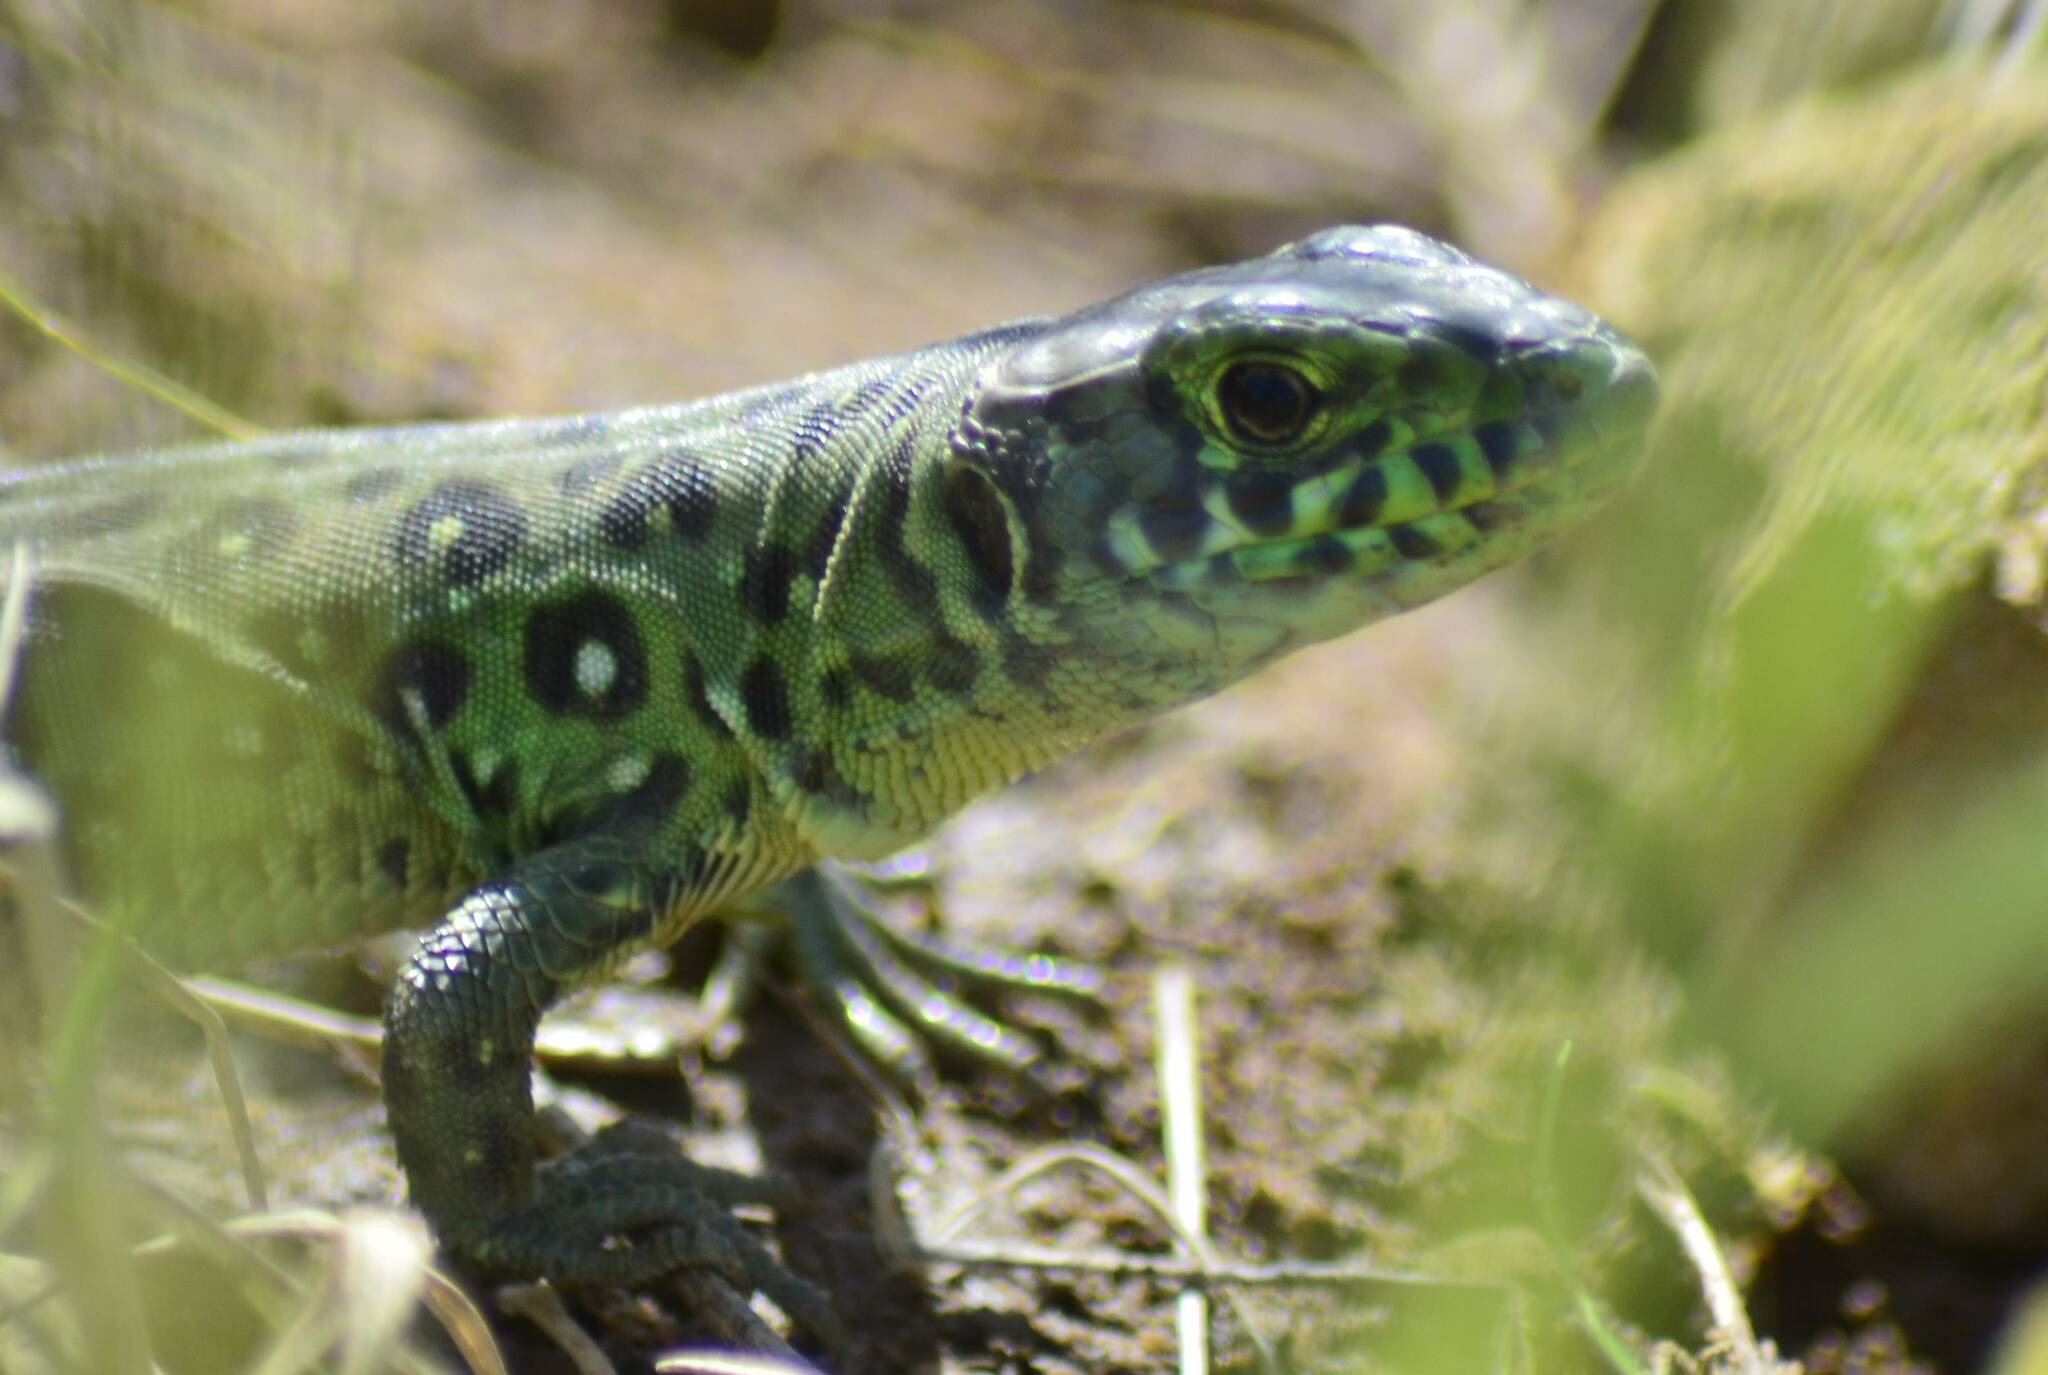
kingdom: Animalia
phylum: Chordata
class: Squamata
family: Lacertidae
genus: Timon
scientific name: Timon pater
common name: North african ocellated lizard
